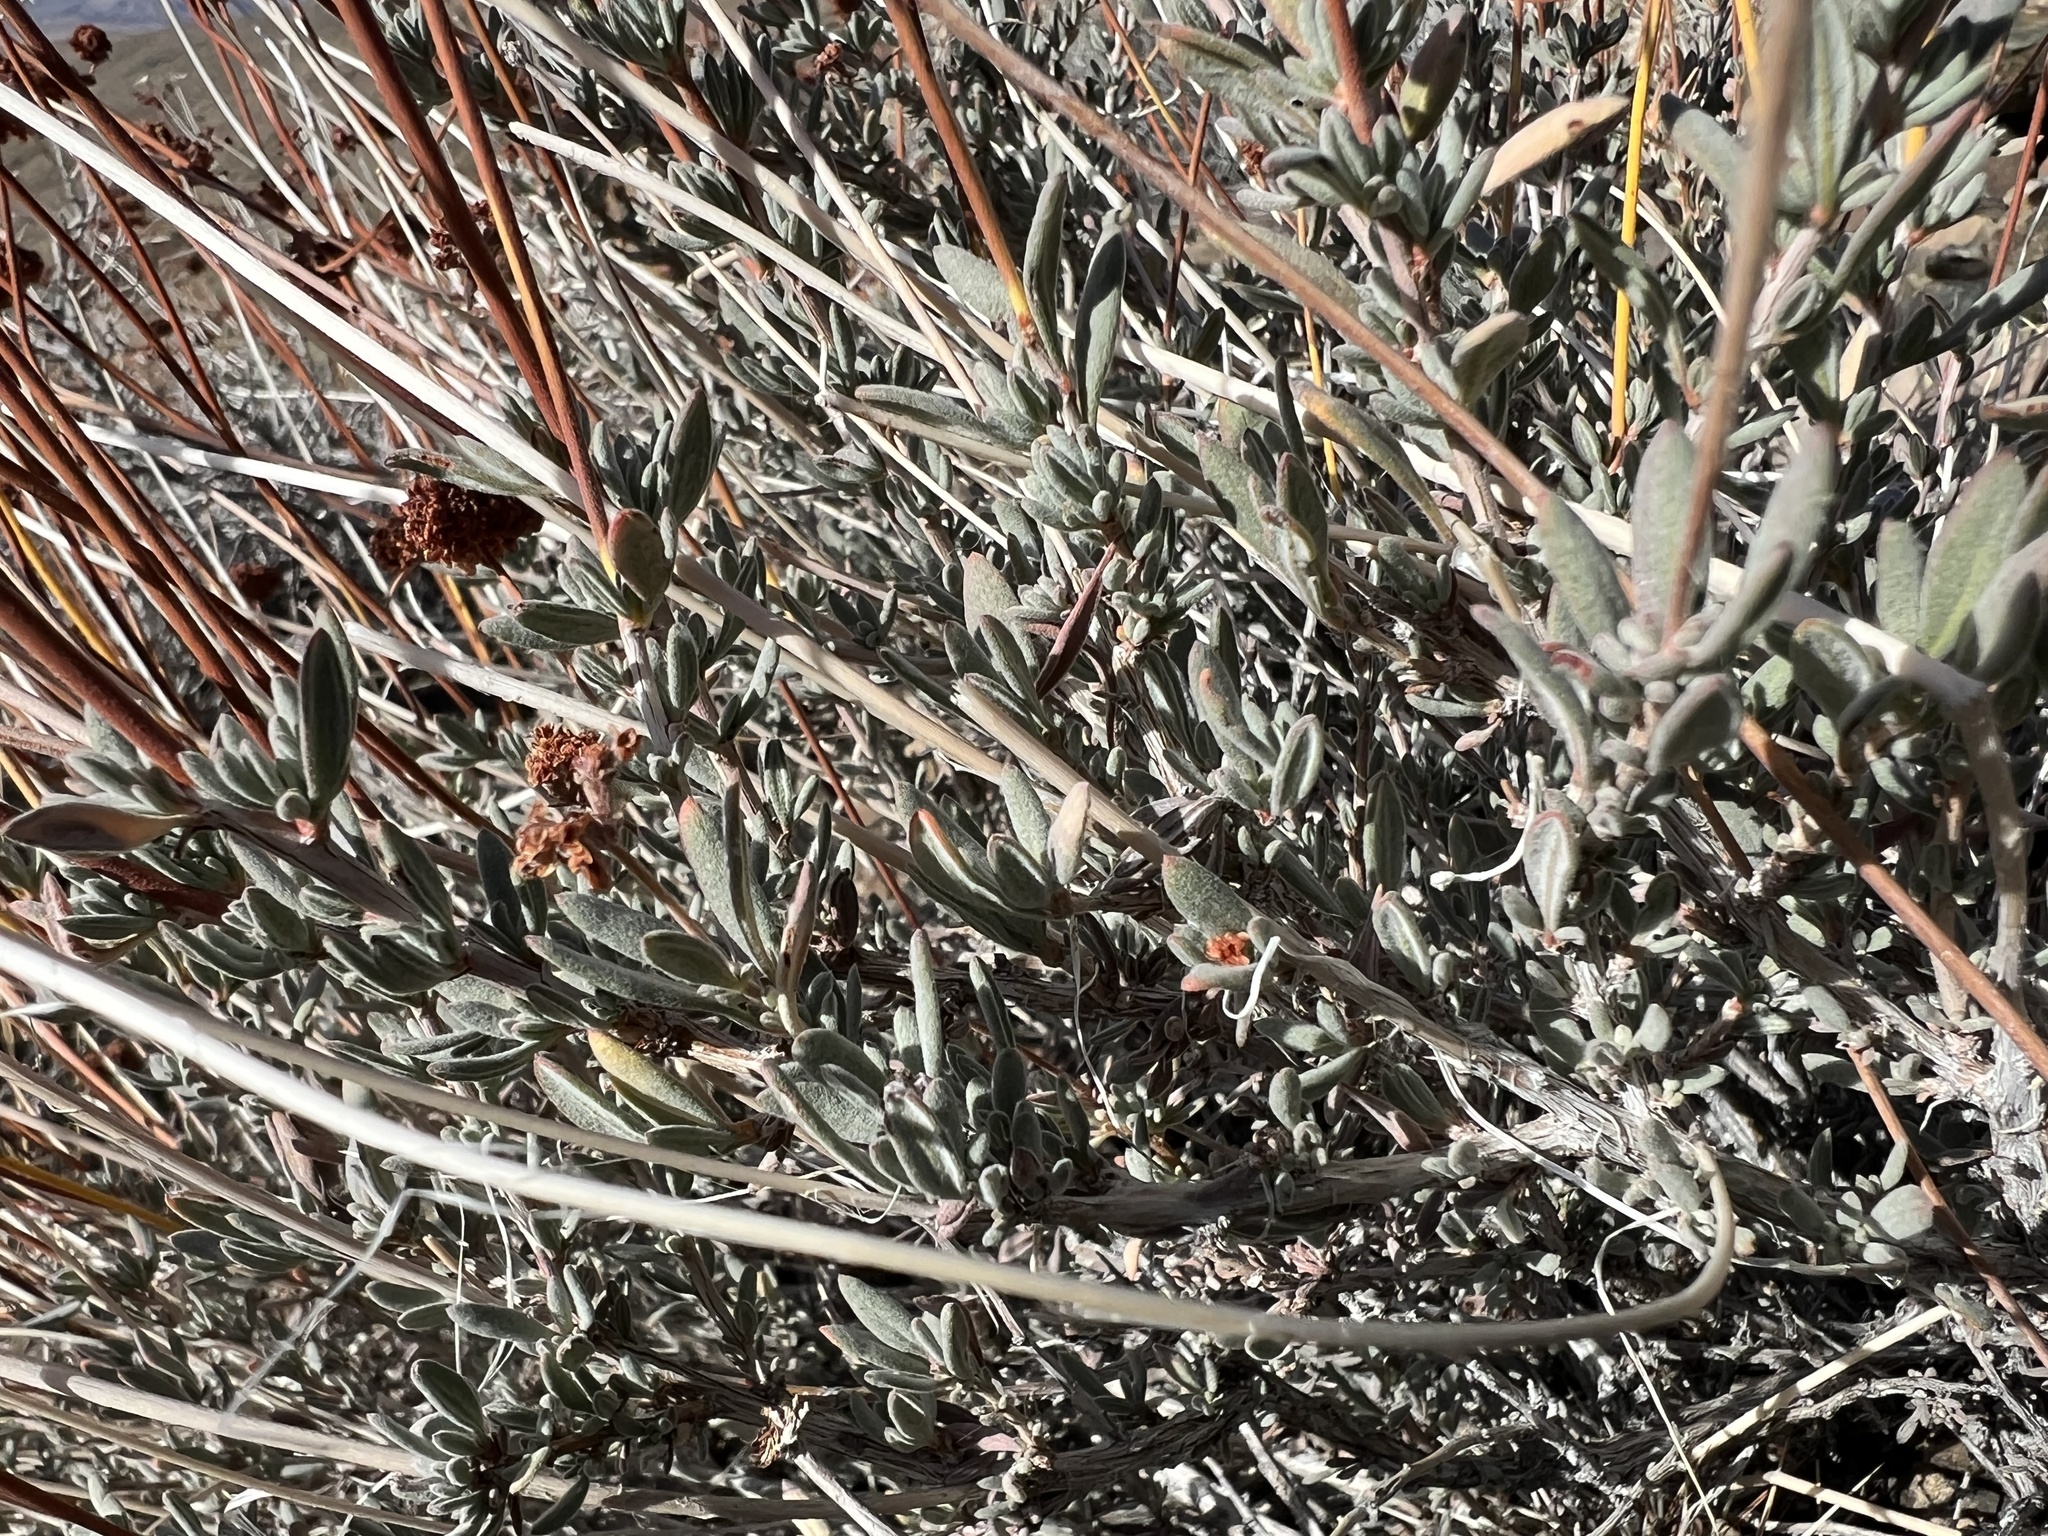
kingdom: Plantae
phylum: Tracheophyta
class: Magnoliopsida
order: Caryophyllales
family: Polygonaceae
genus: Eriogonum
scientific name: Eriogonum fasciculatum
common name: California wild buckwheat
